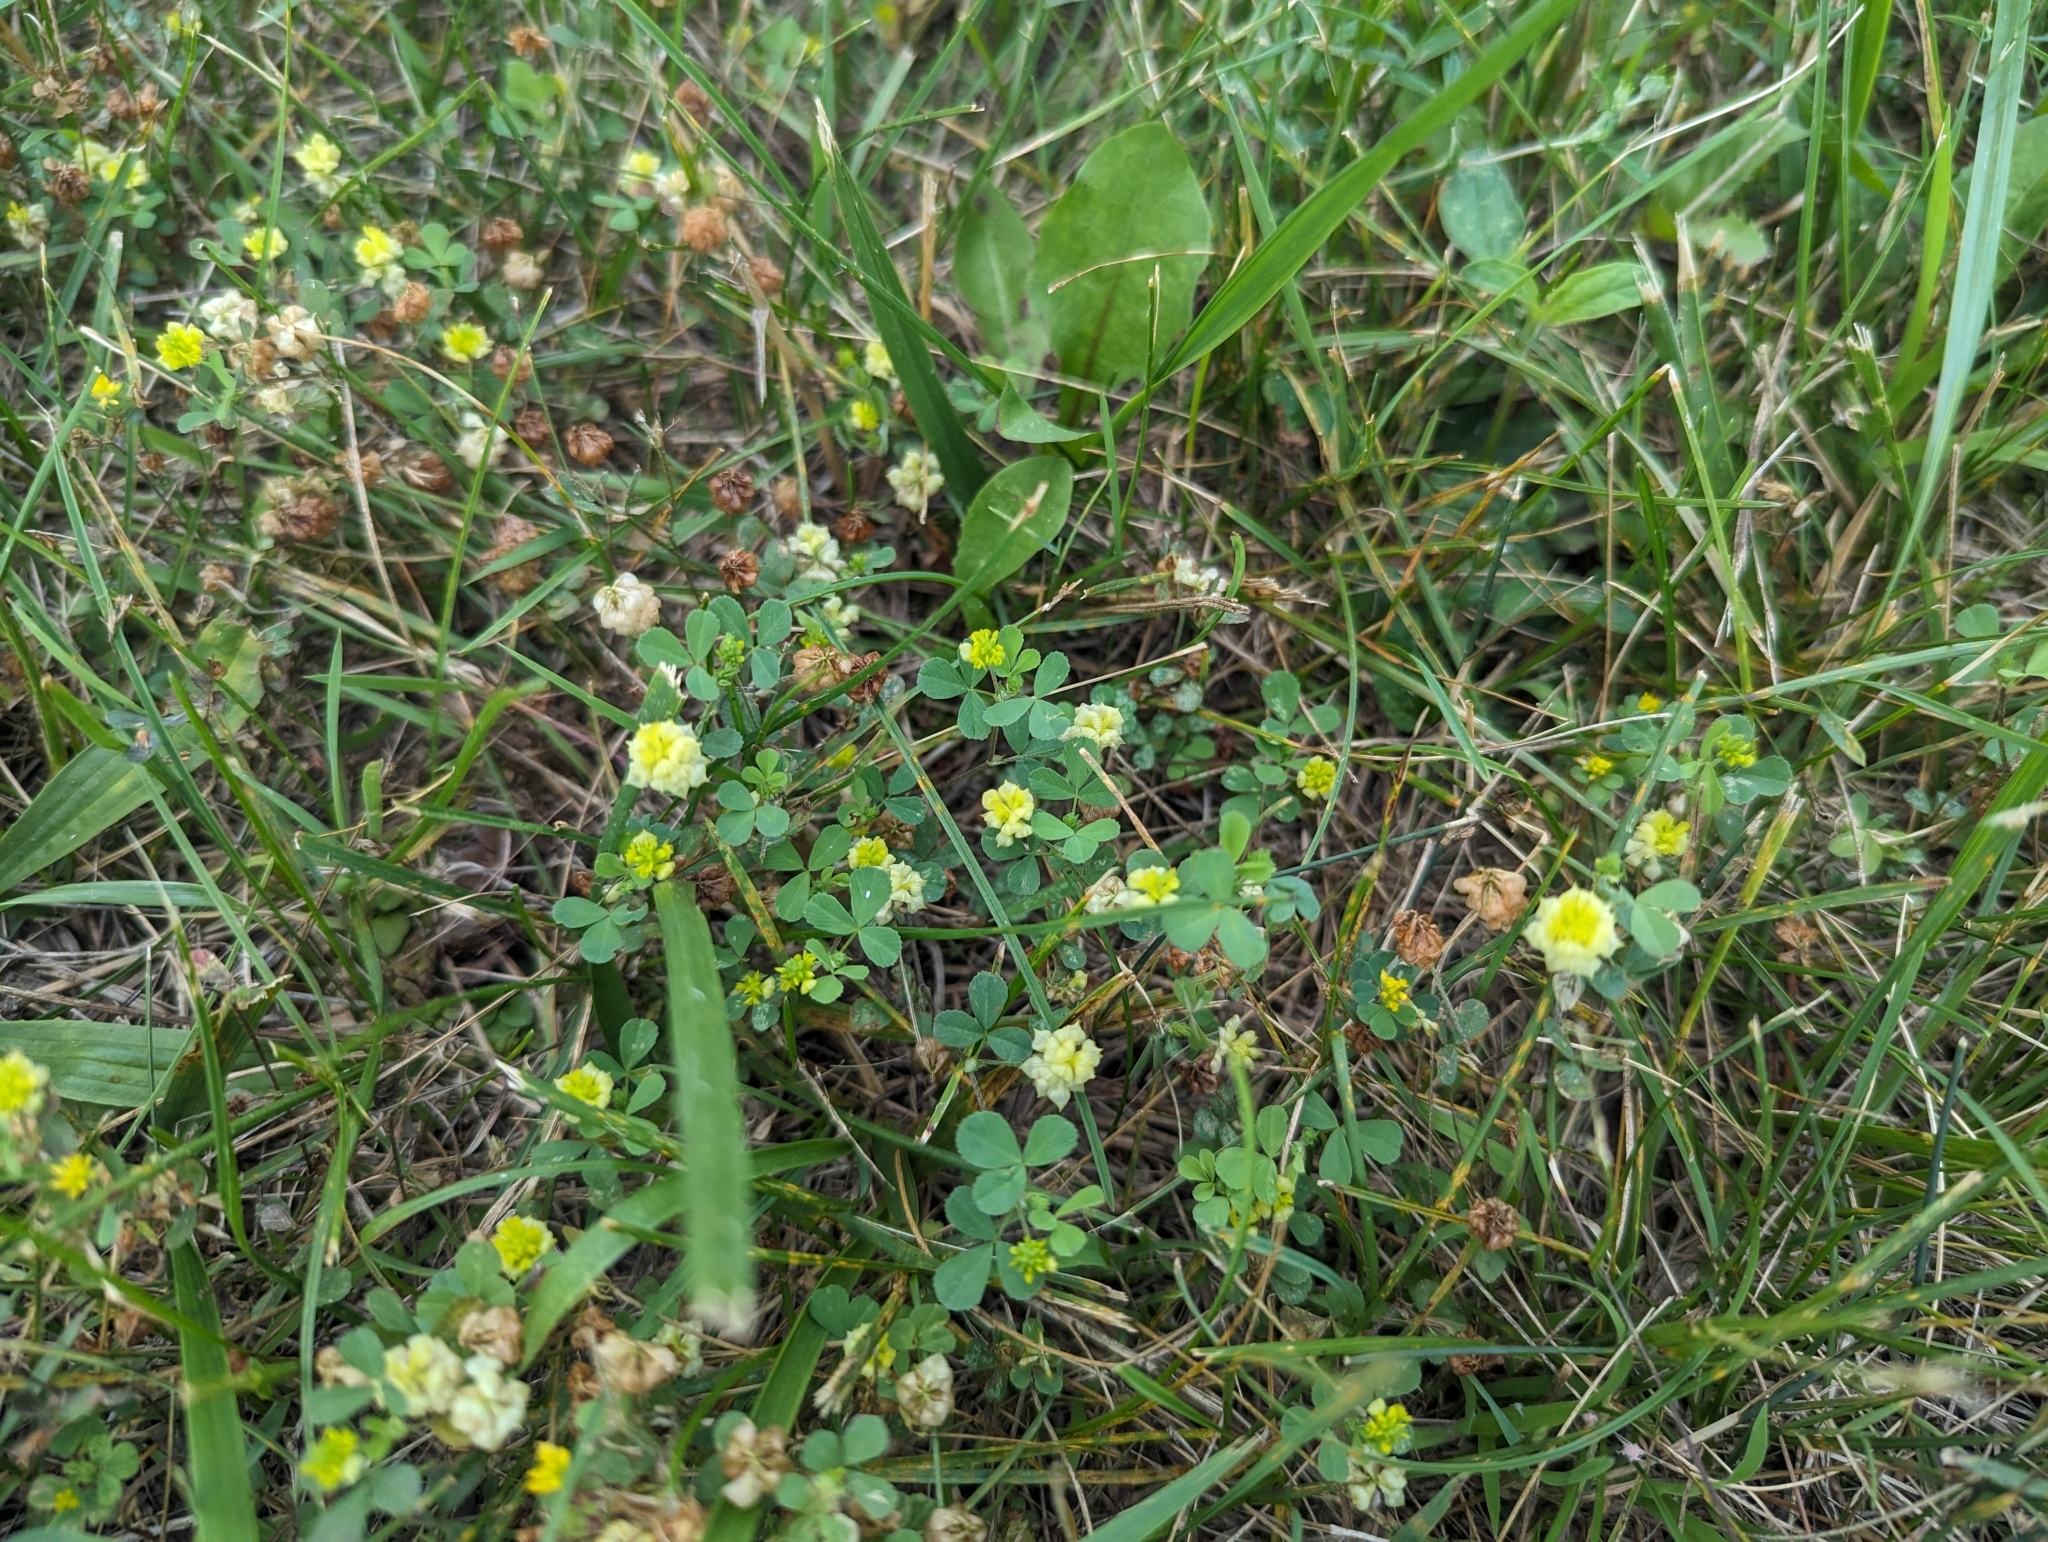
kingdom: Plantae
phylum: Tracheophyta
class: Magnoliopsida
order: Fabales
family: Fabaceae
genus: Trifolium
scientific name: Trifolium campestre
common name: Field clover
